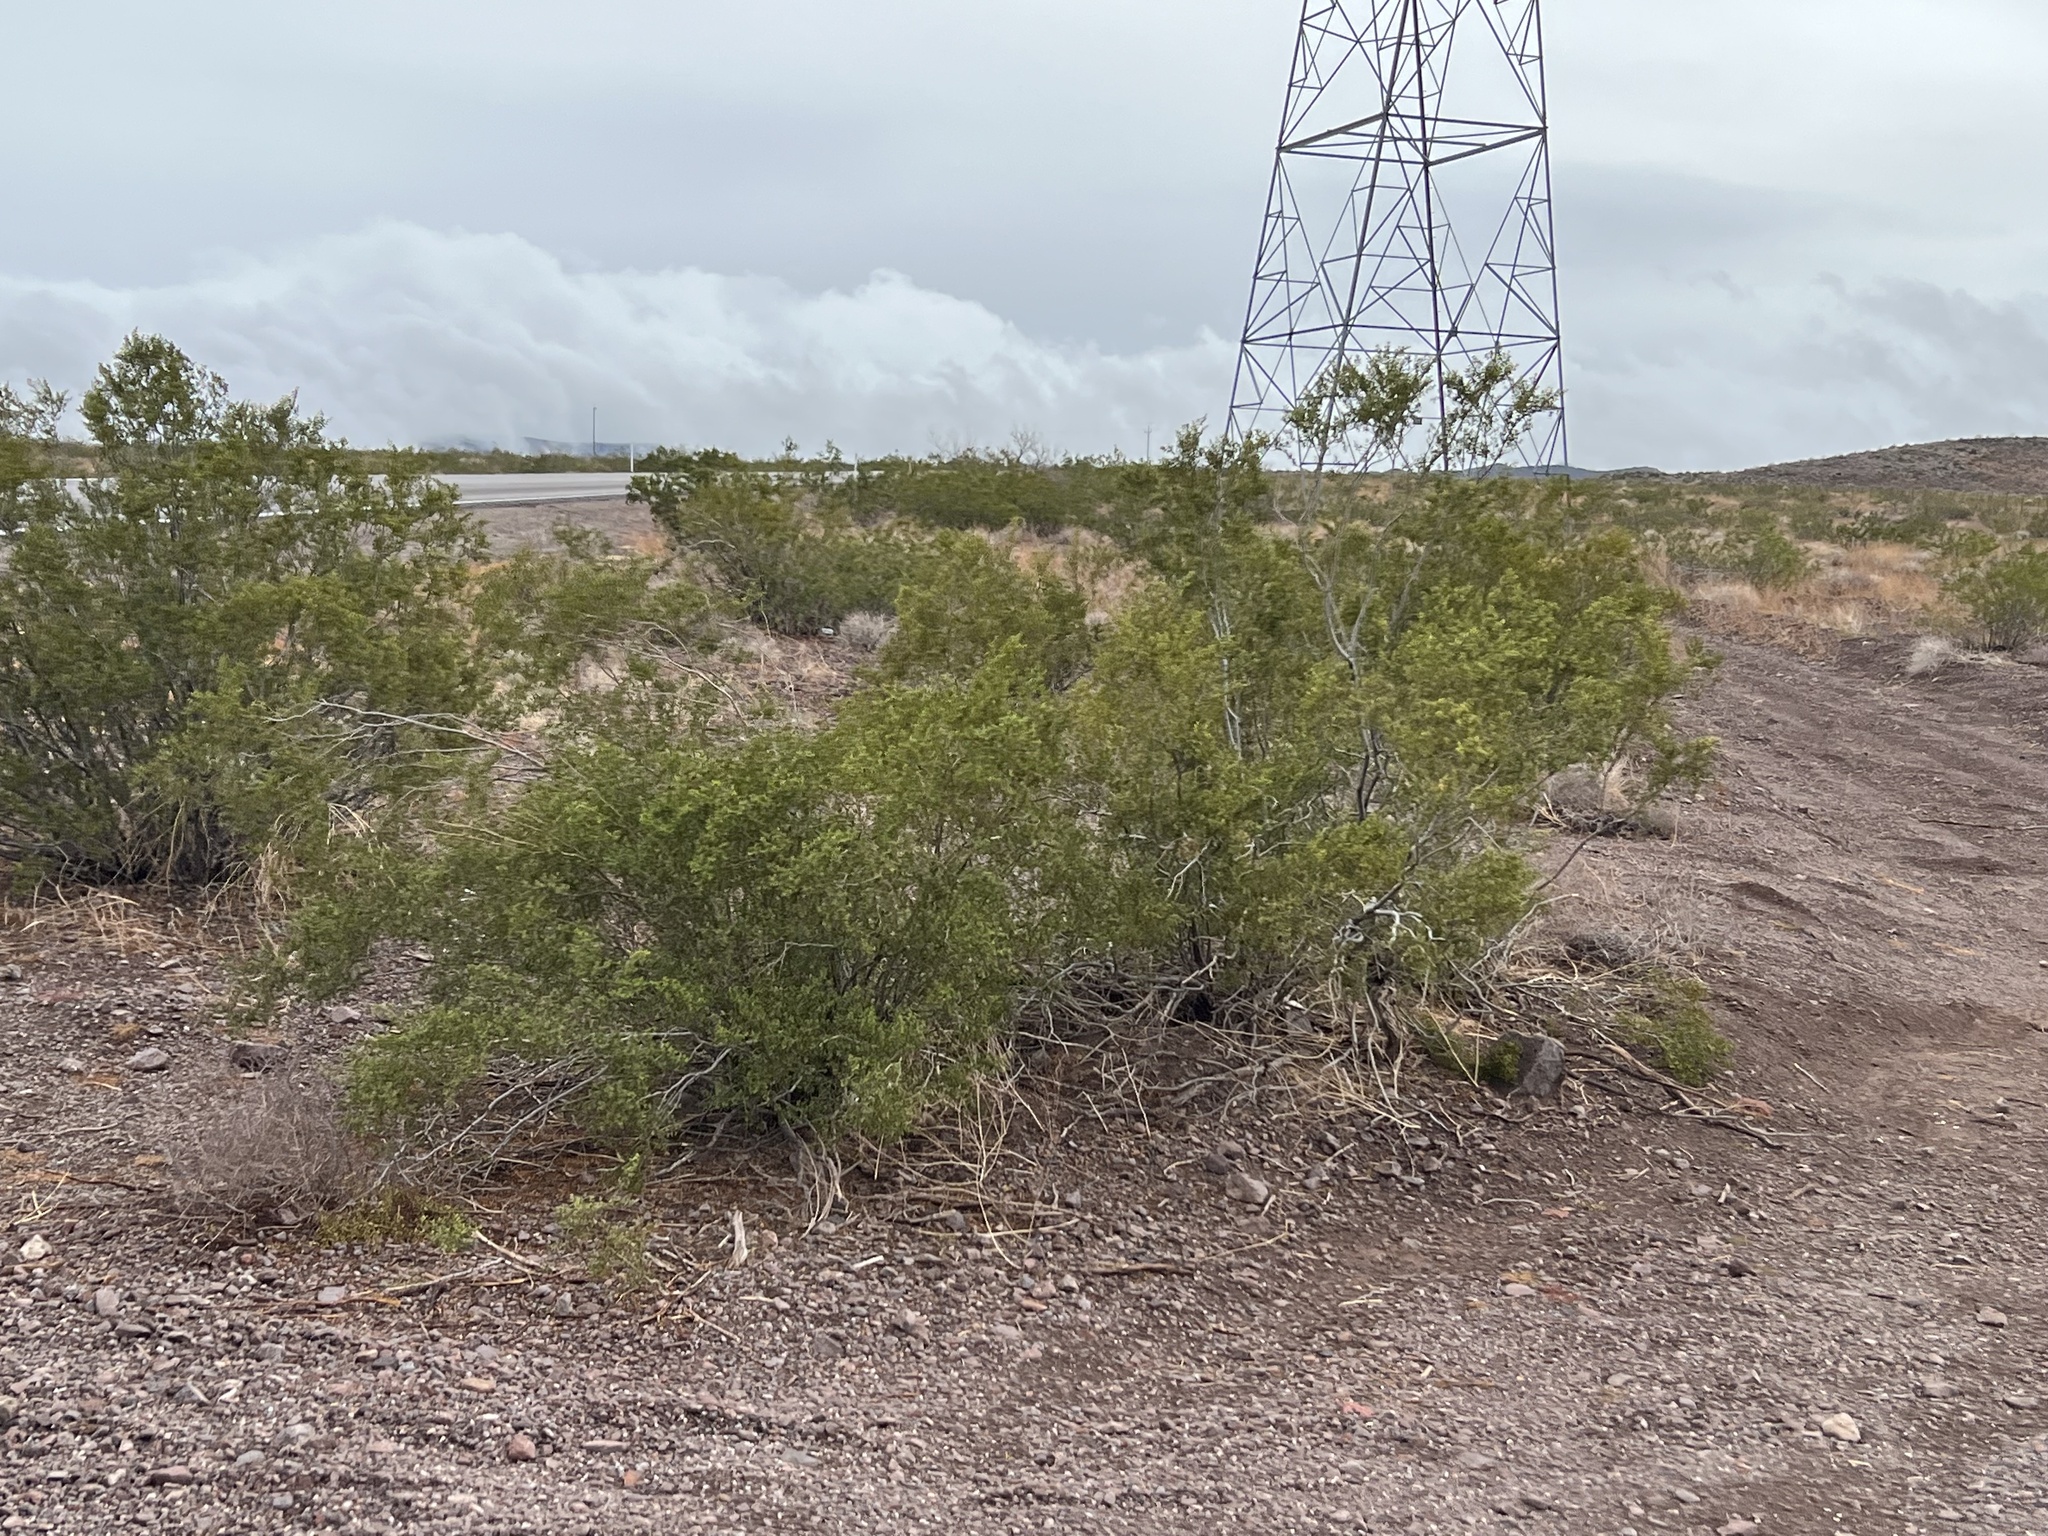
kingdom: Plantae
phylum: Tracheophyta
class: Magnoliopsida
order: Zygophyllales
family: Zygophyllaceae
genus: Larrea
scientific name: Larrea tridentata
